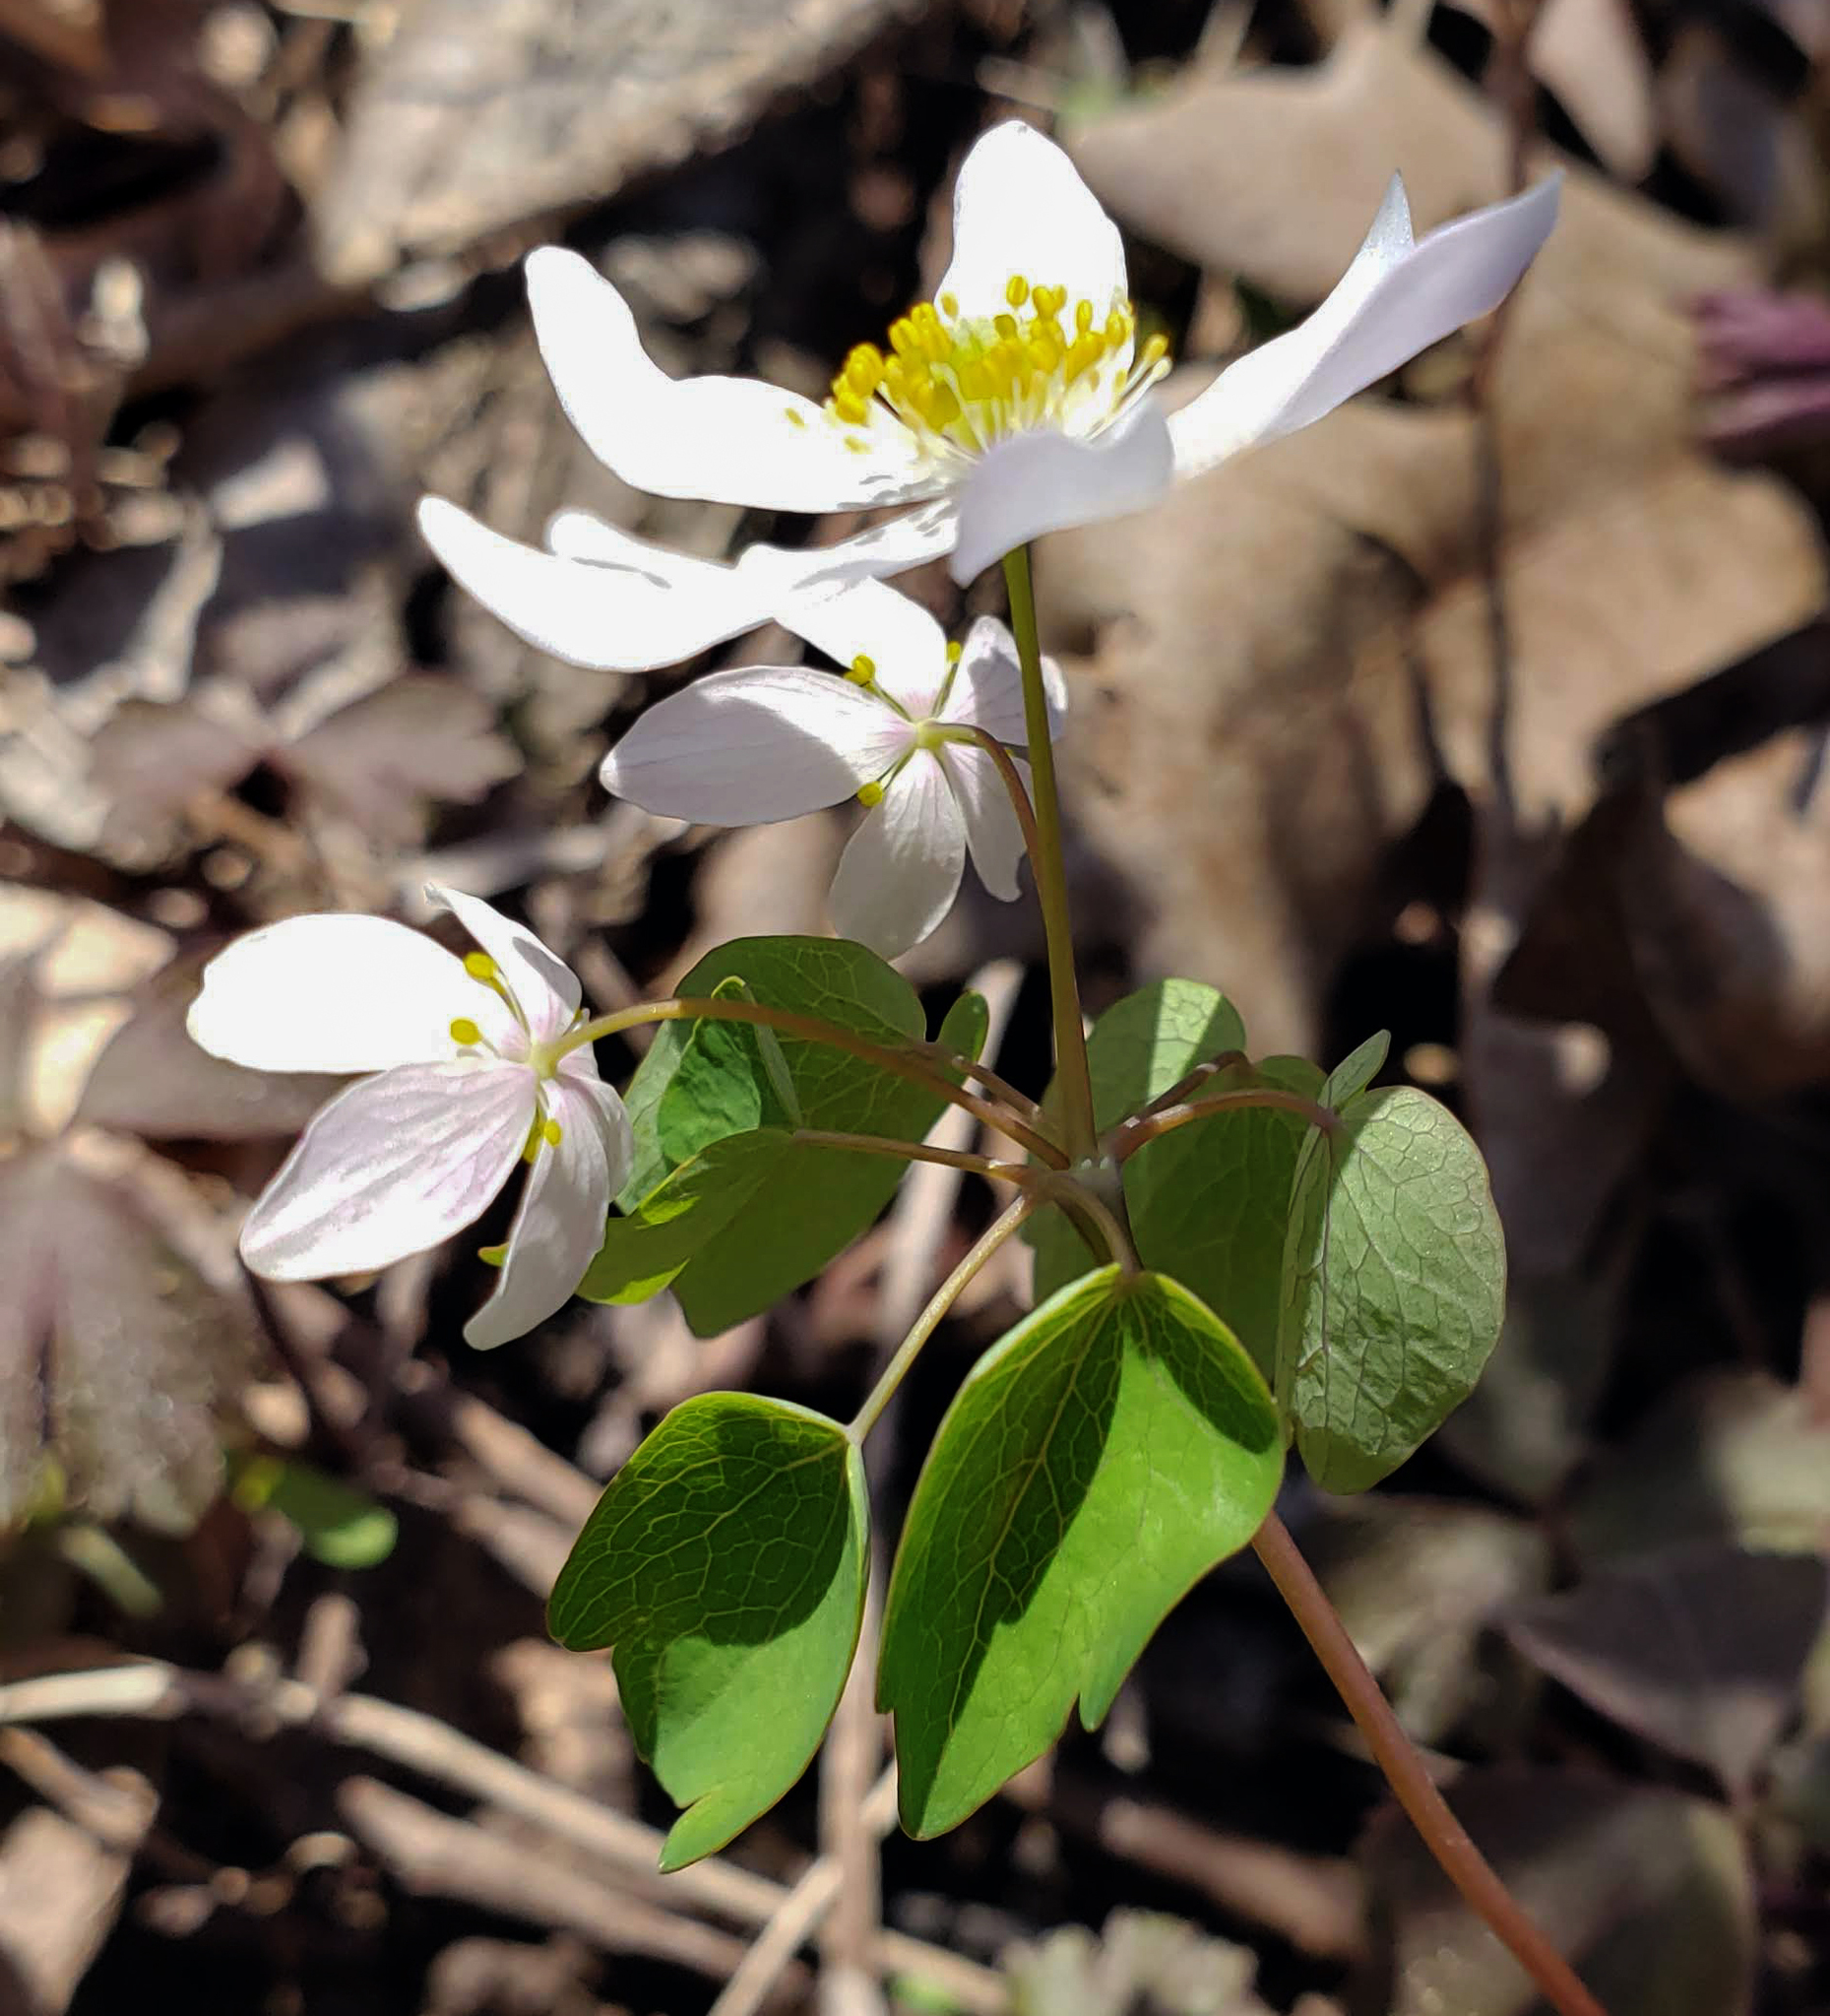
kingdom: Plantae
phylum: Tracheophyta
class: Magnoliopsida
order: Ranunculales
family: Ranunculaceae
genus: Thalictrum
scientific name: Thalictrum thalictroides
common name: Rue-anemone
